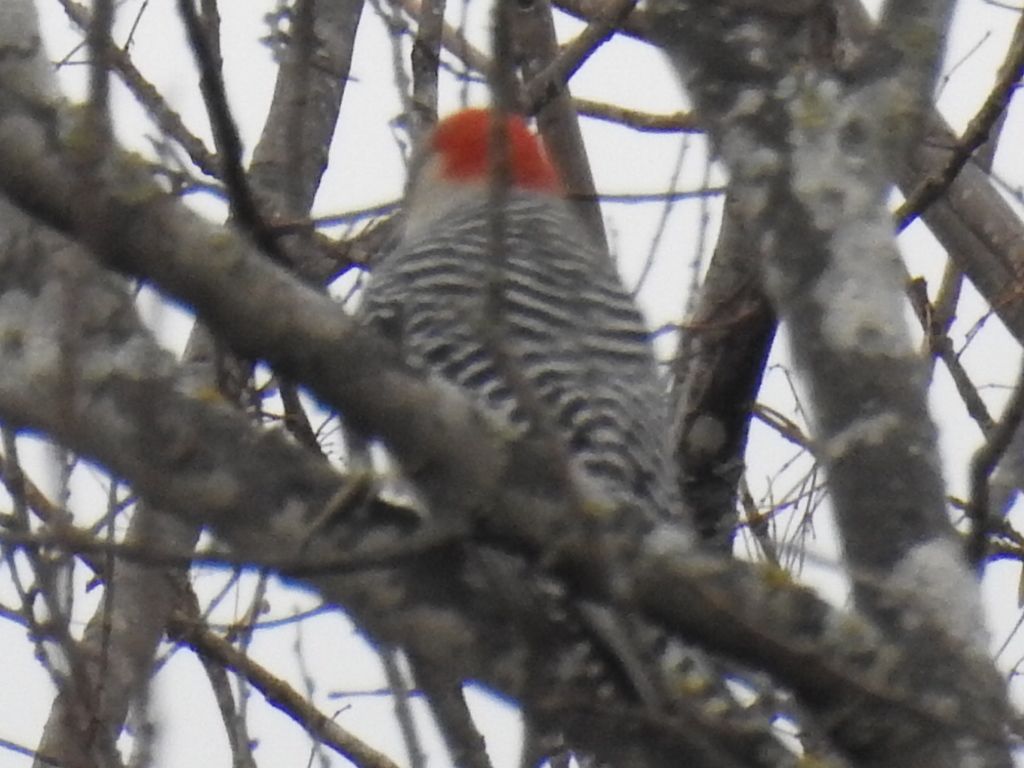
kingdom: Animalia
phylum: Chordata
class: Aves
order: Piciformes
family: Picidae
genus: Melanerpes
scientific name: Melanerpes carolinus
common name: Red-bellied woodpecker
